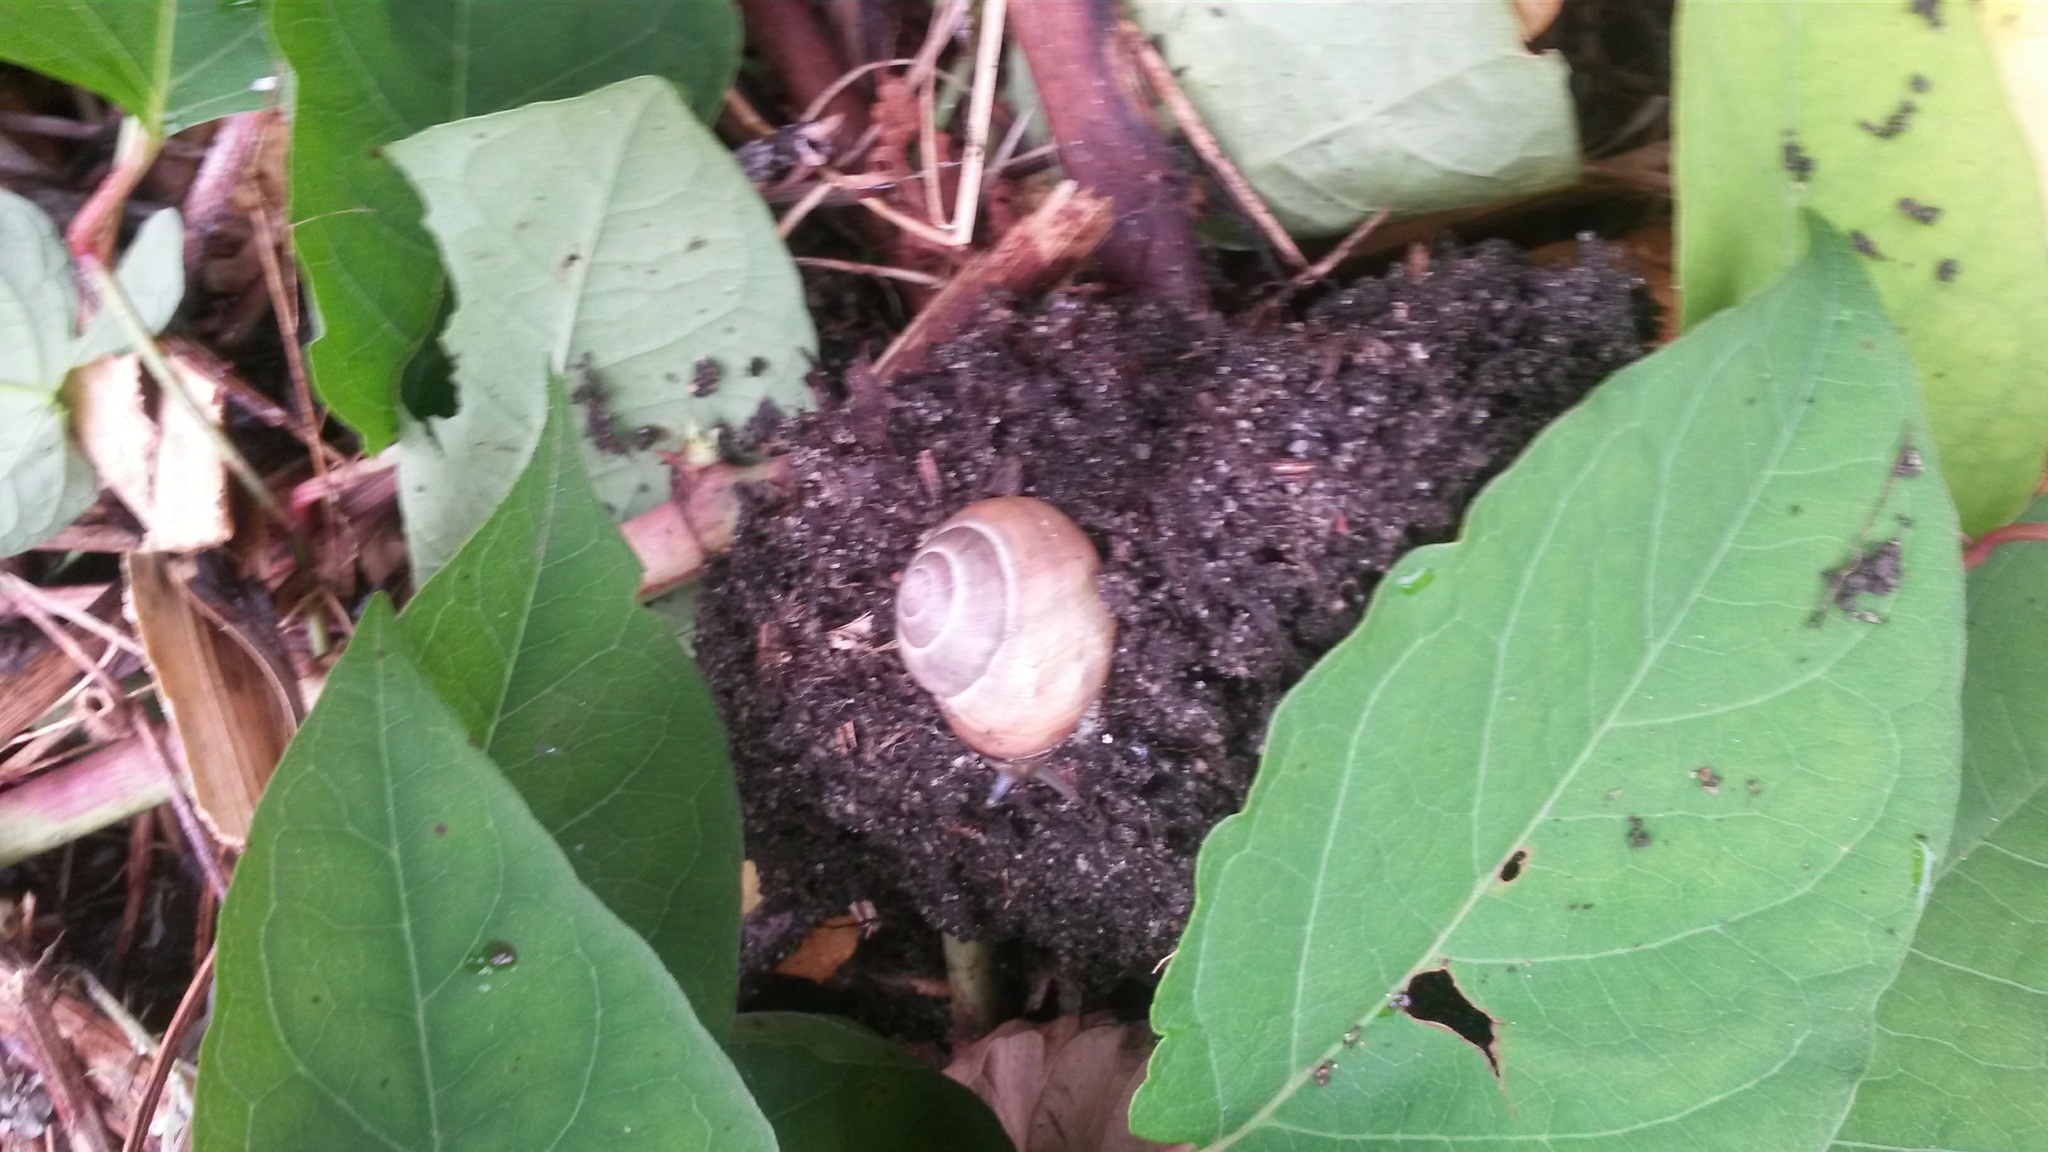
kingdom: Animalia
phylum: Mollusca
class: Gastropoda
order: Stylommatophora
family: Helicidae
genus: Cepaea
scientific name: Cepaea nemoralis
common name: Grovesnail
